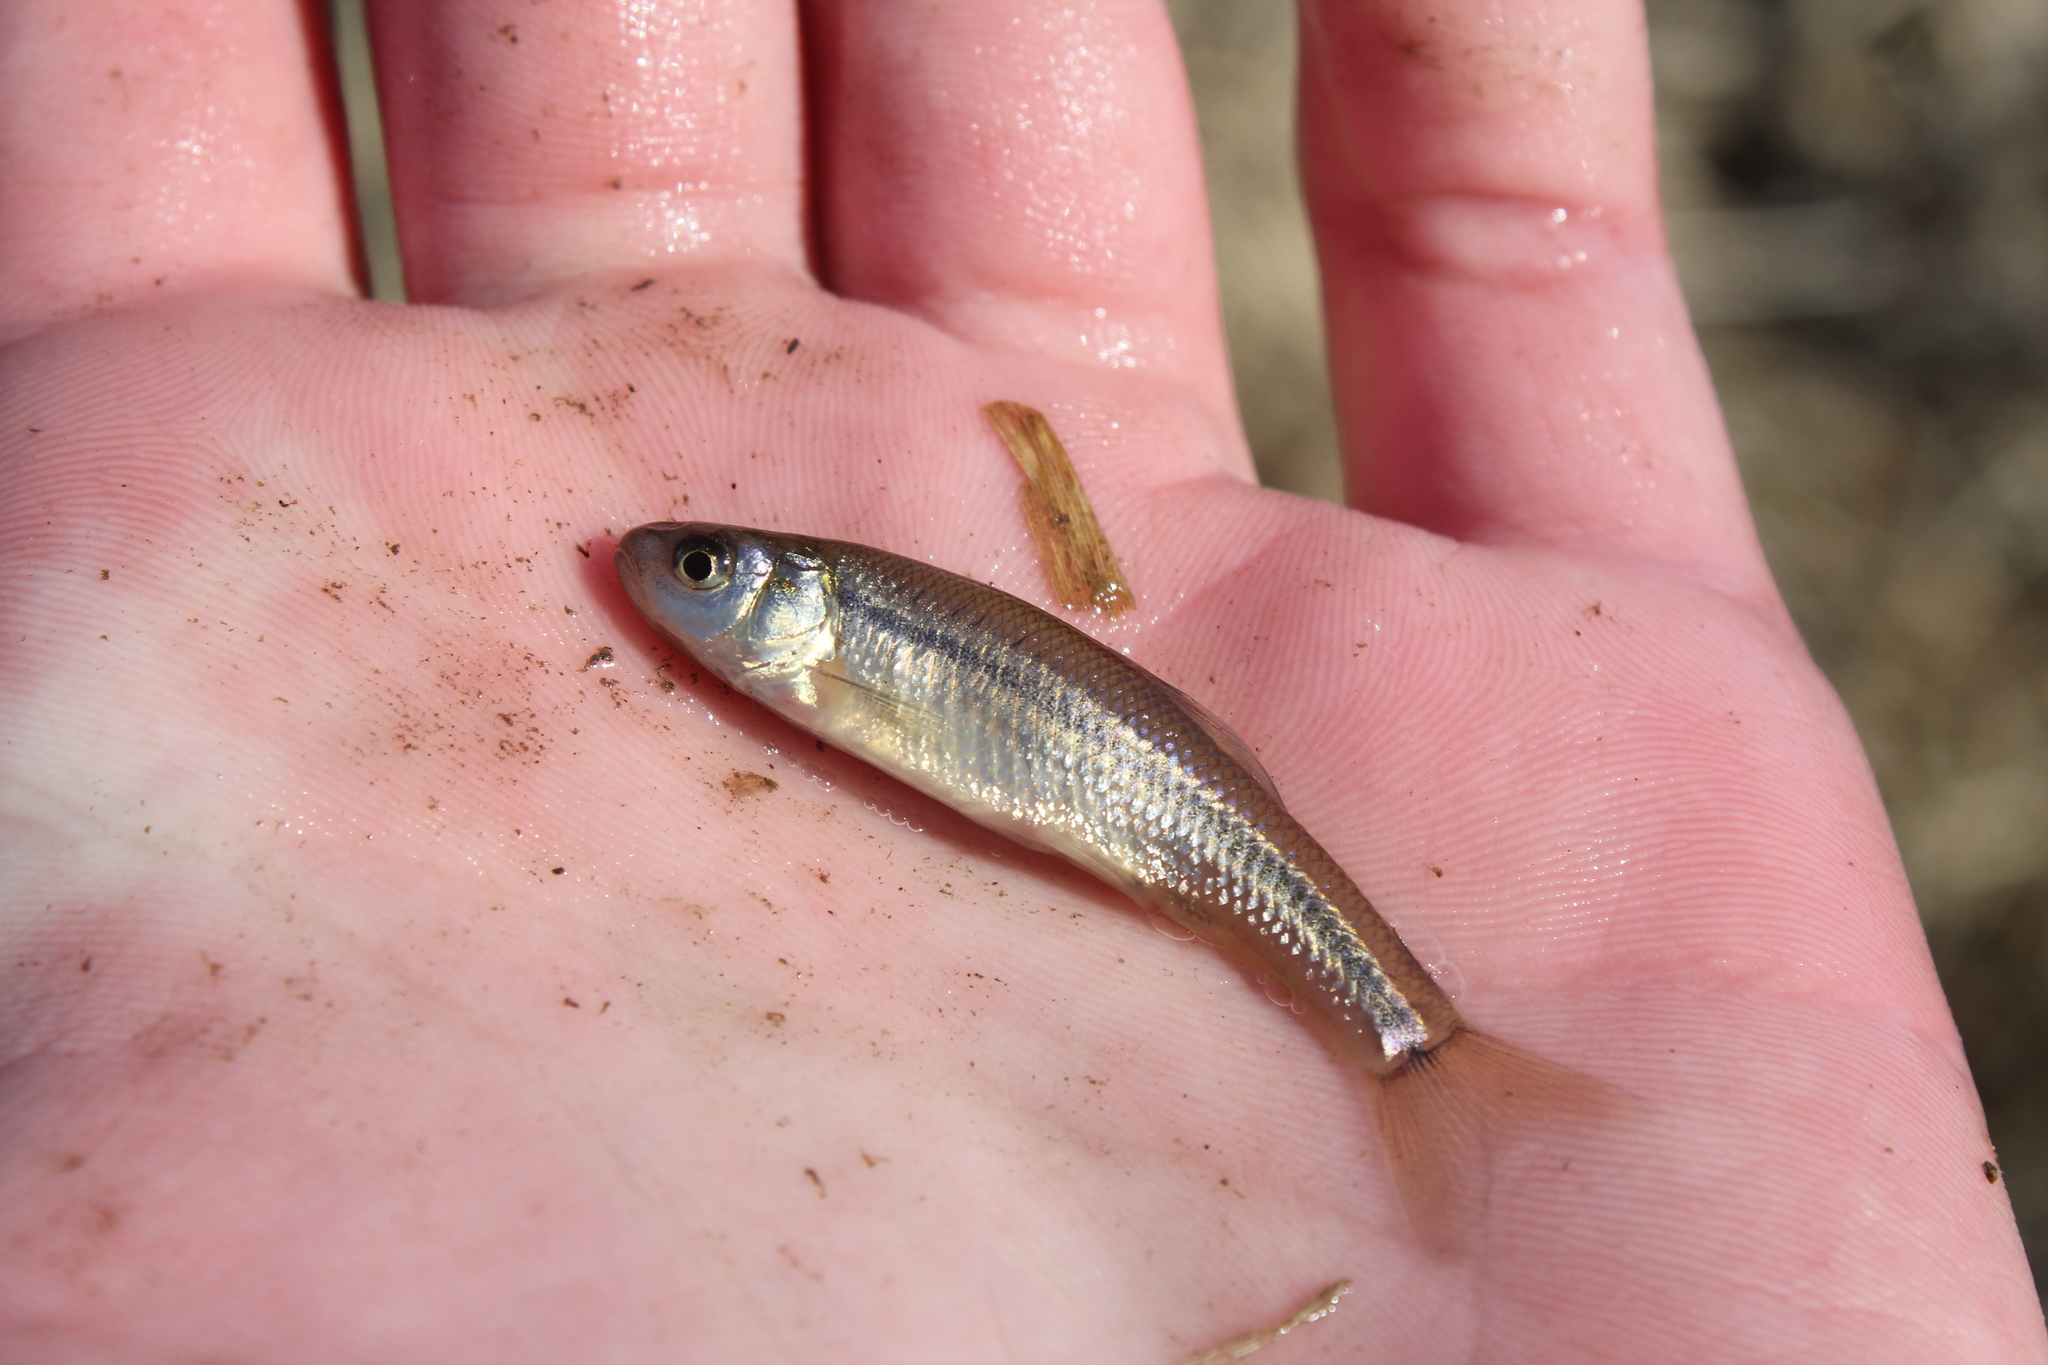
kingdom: Animalia
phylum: Chordata
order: Cypriniformes
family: Cyprinidae
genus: Pimephales
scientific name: Pimephales promelas
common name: Fathead minnow
